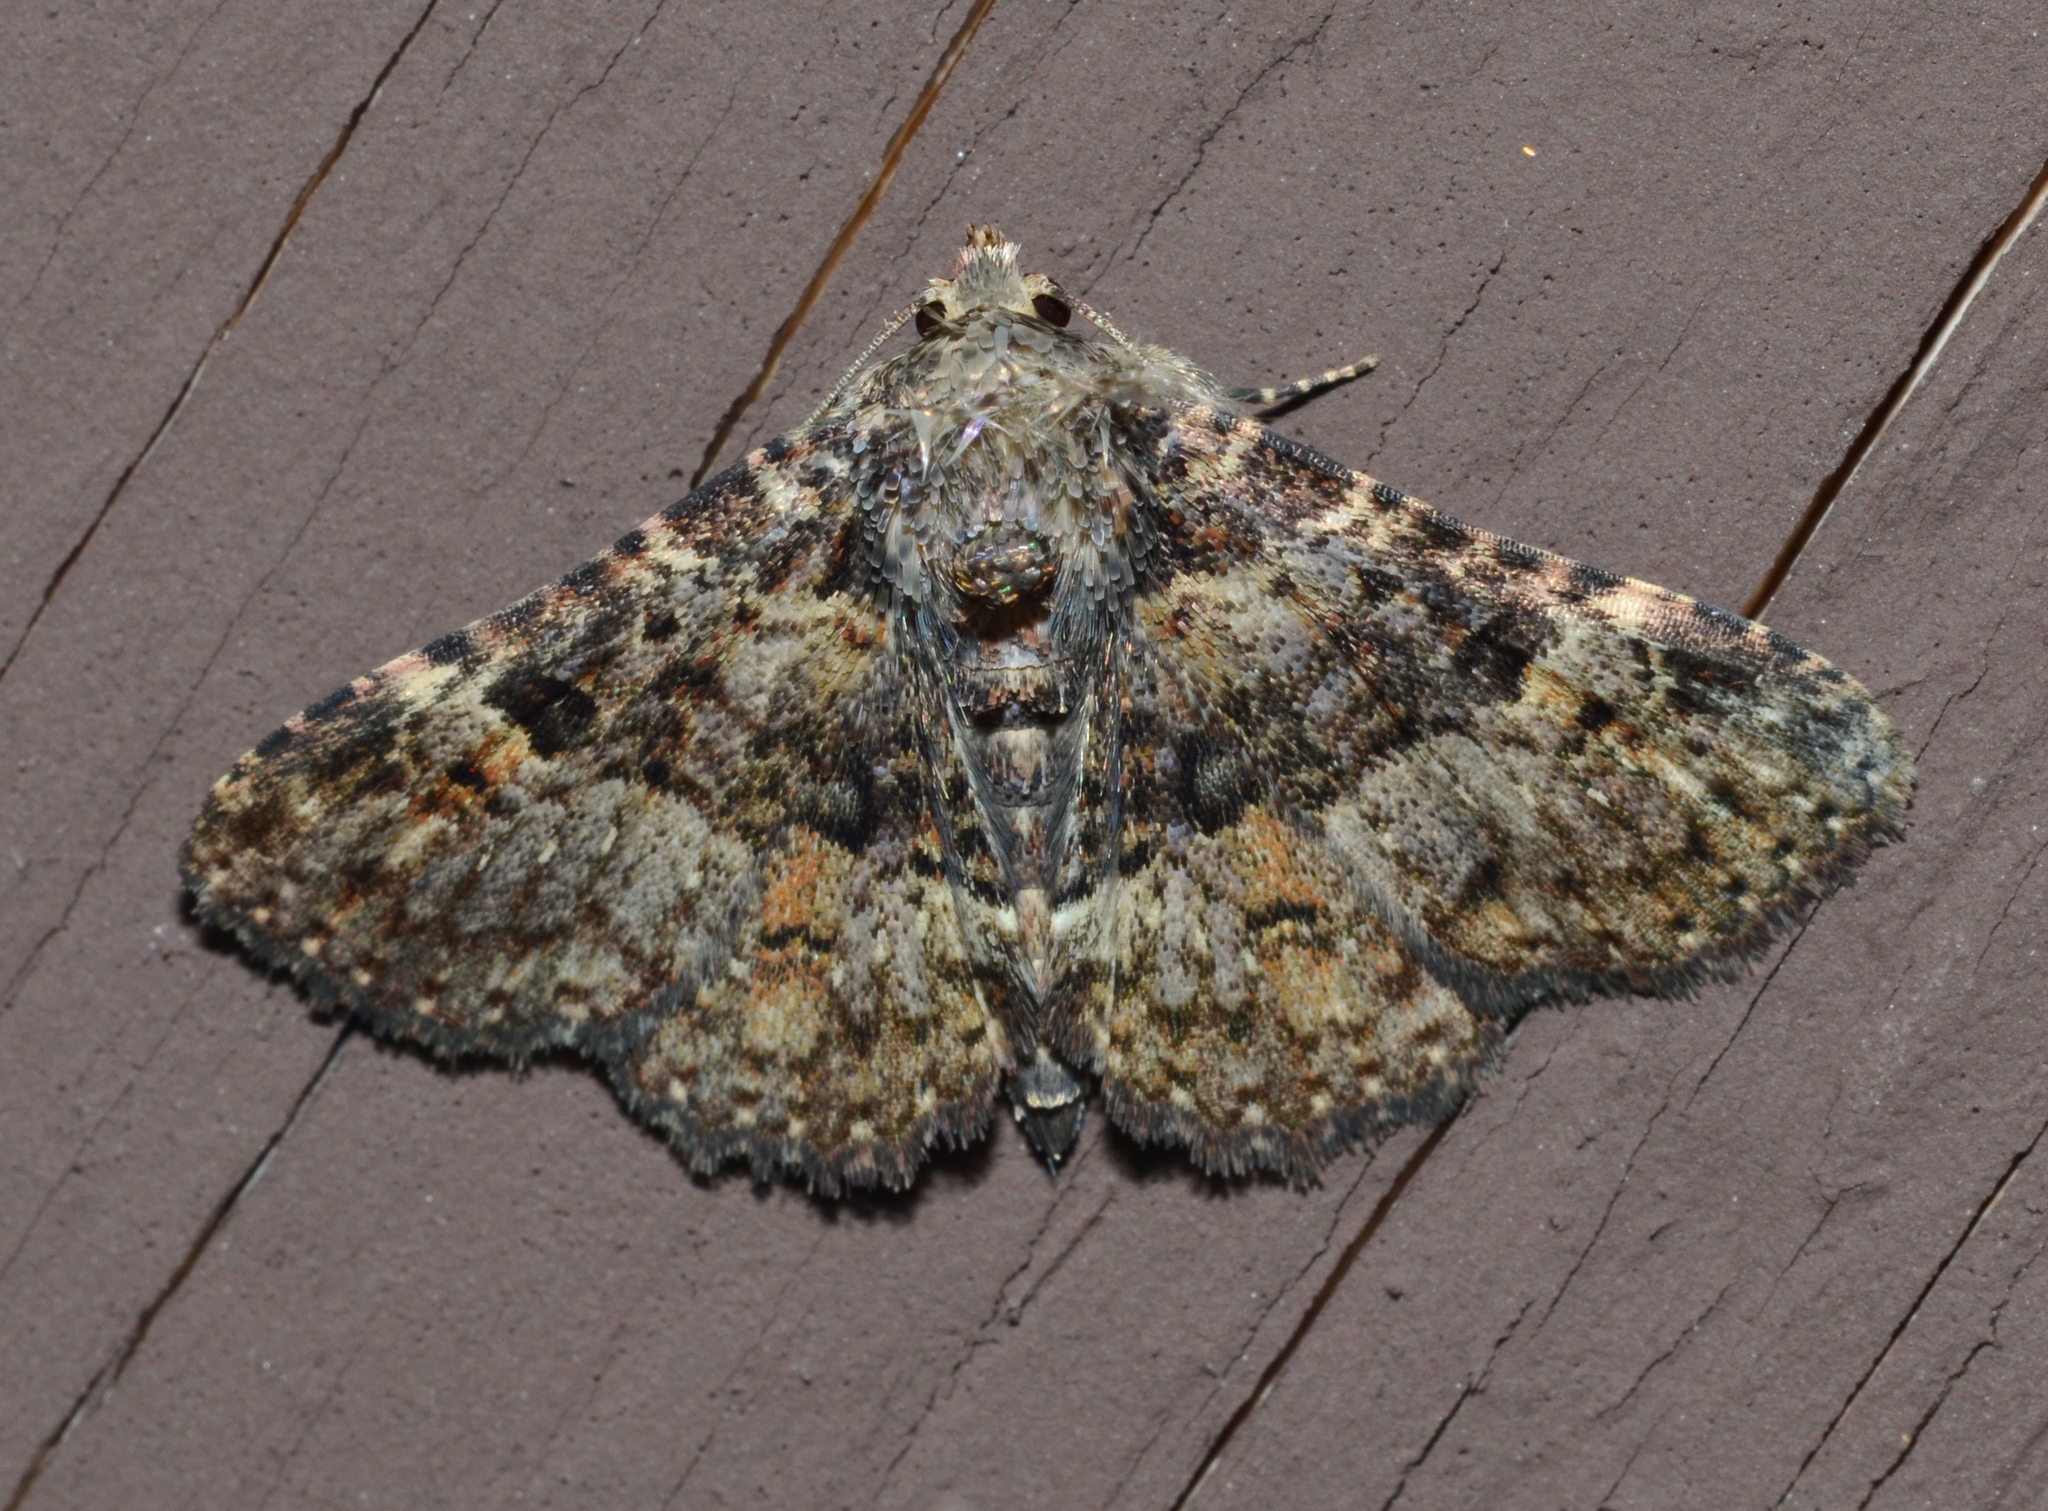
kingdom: Animalia
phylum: Arthropoda
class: Insecta
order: Lepidoptera
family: Erebidae
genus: Metalectra
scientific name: Metalectra discalis
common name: Common fungus moth
